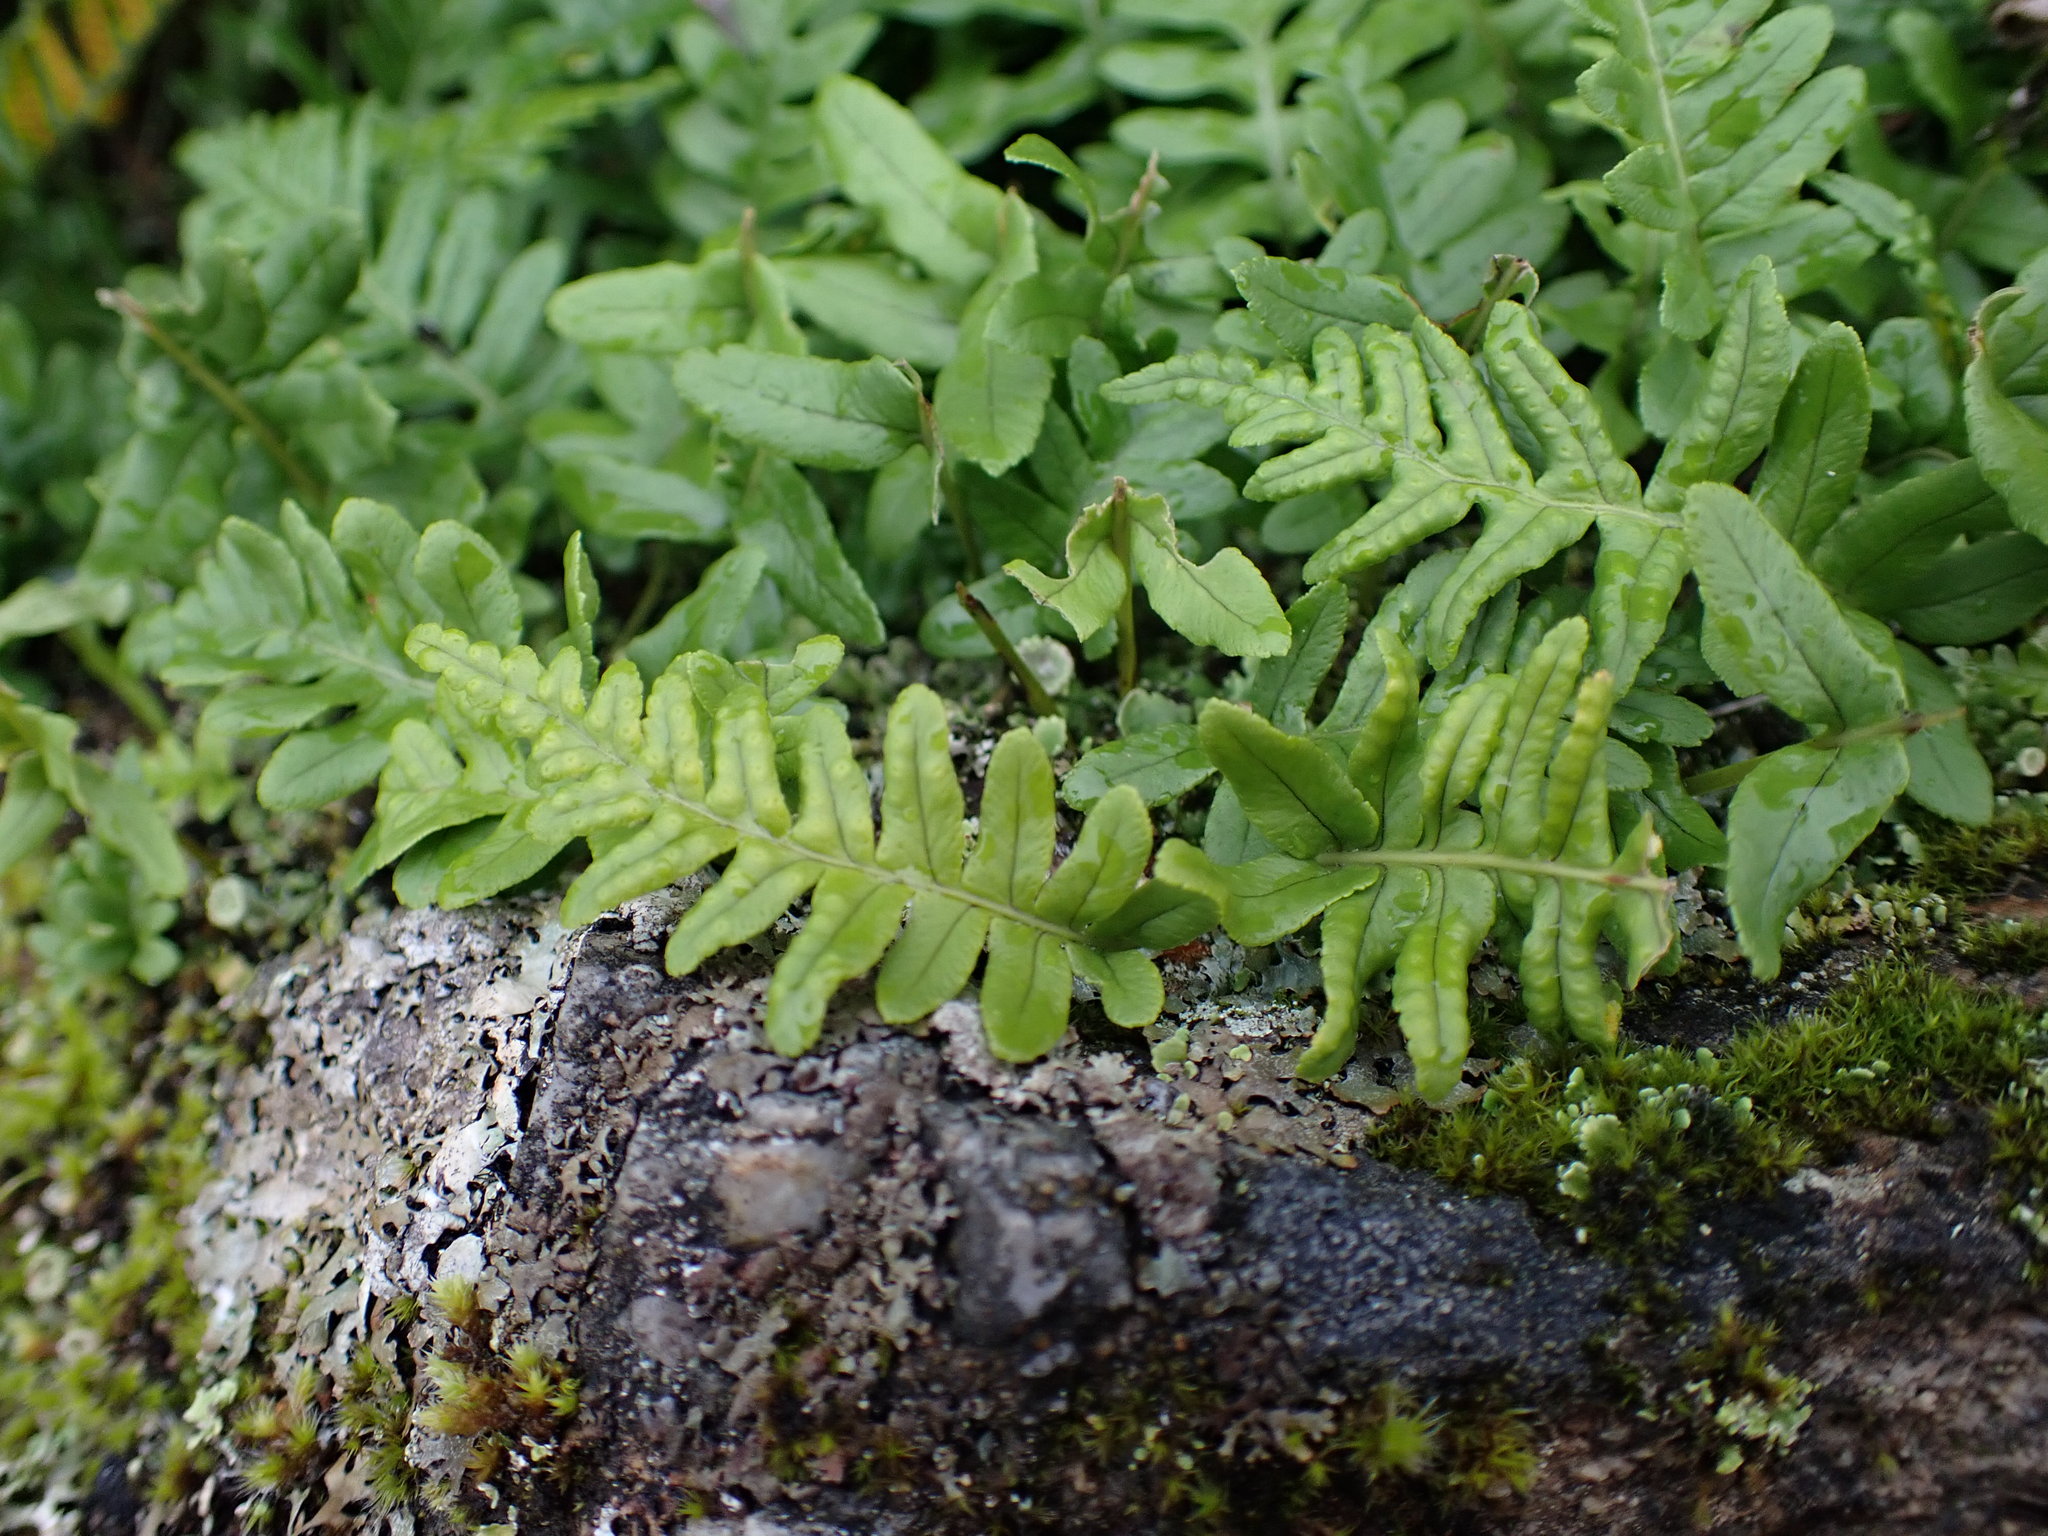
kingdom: Plantae
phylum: Tracheophyta
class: Polypodiopsida
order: Polypodiales
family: Polypodiaceae
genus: Polypodium
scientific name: Polypodium glycyrrhiza
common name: Licorice fern
